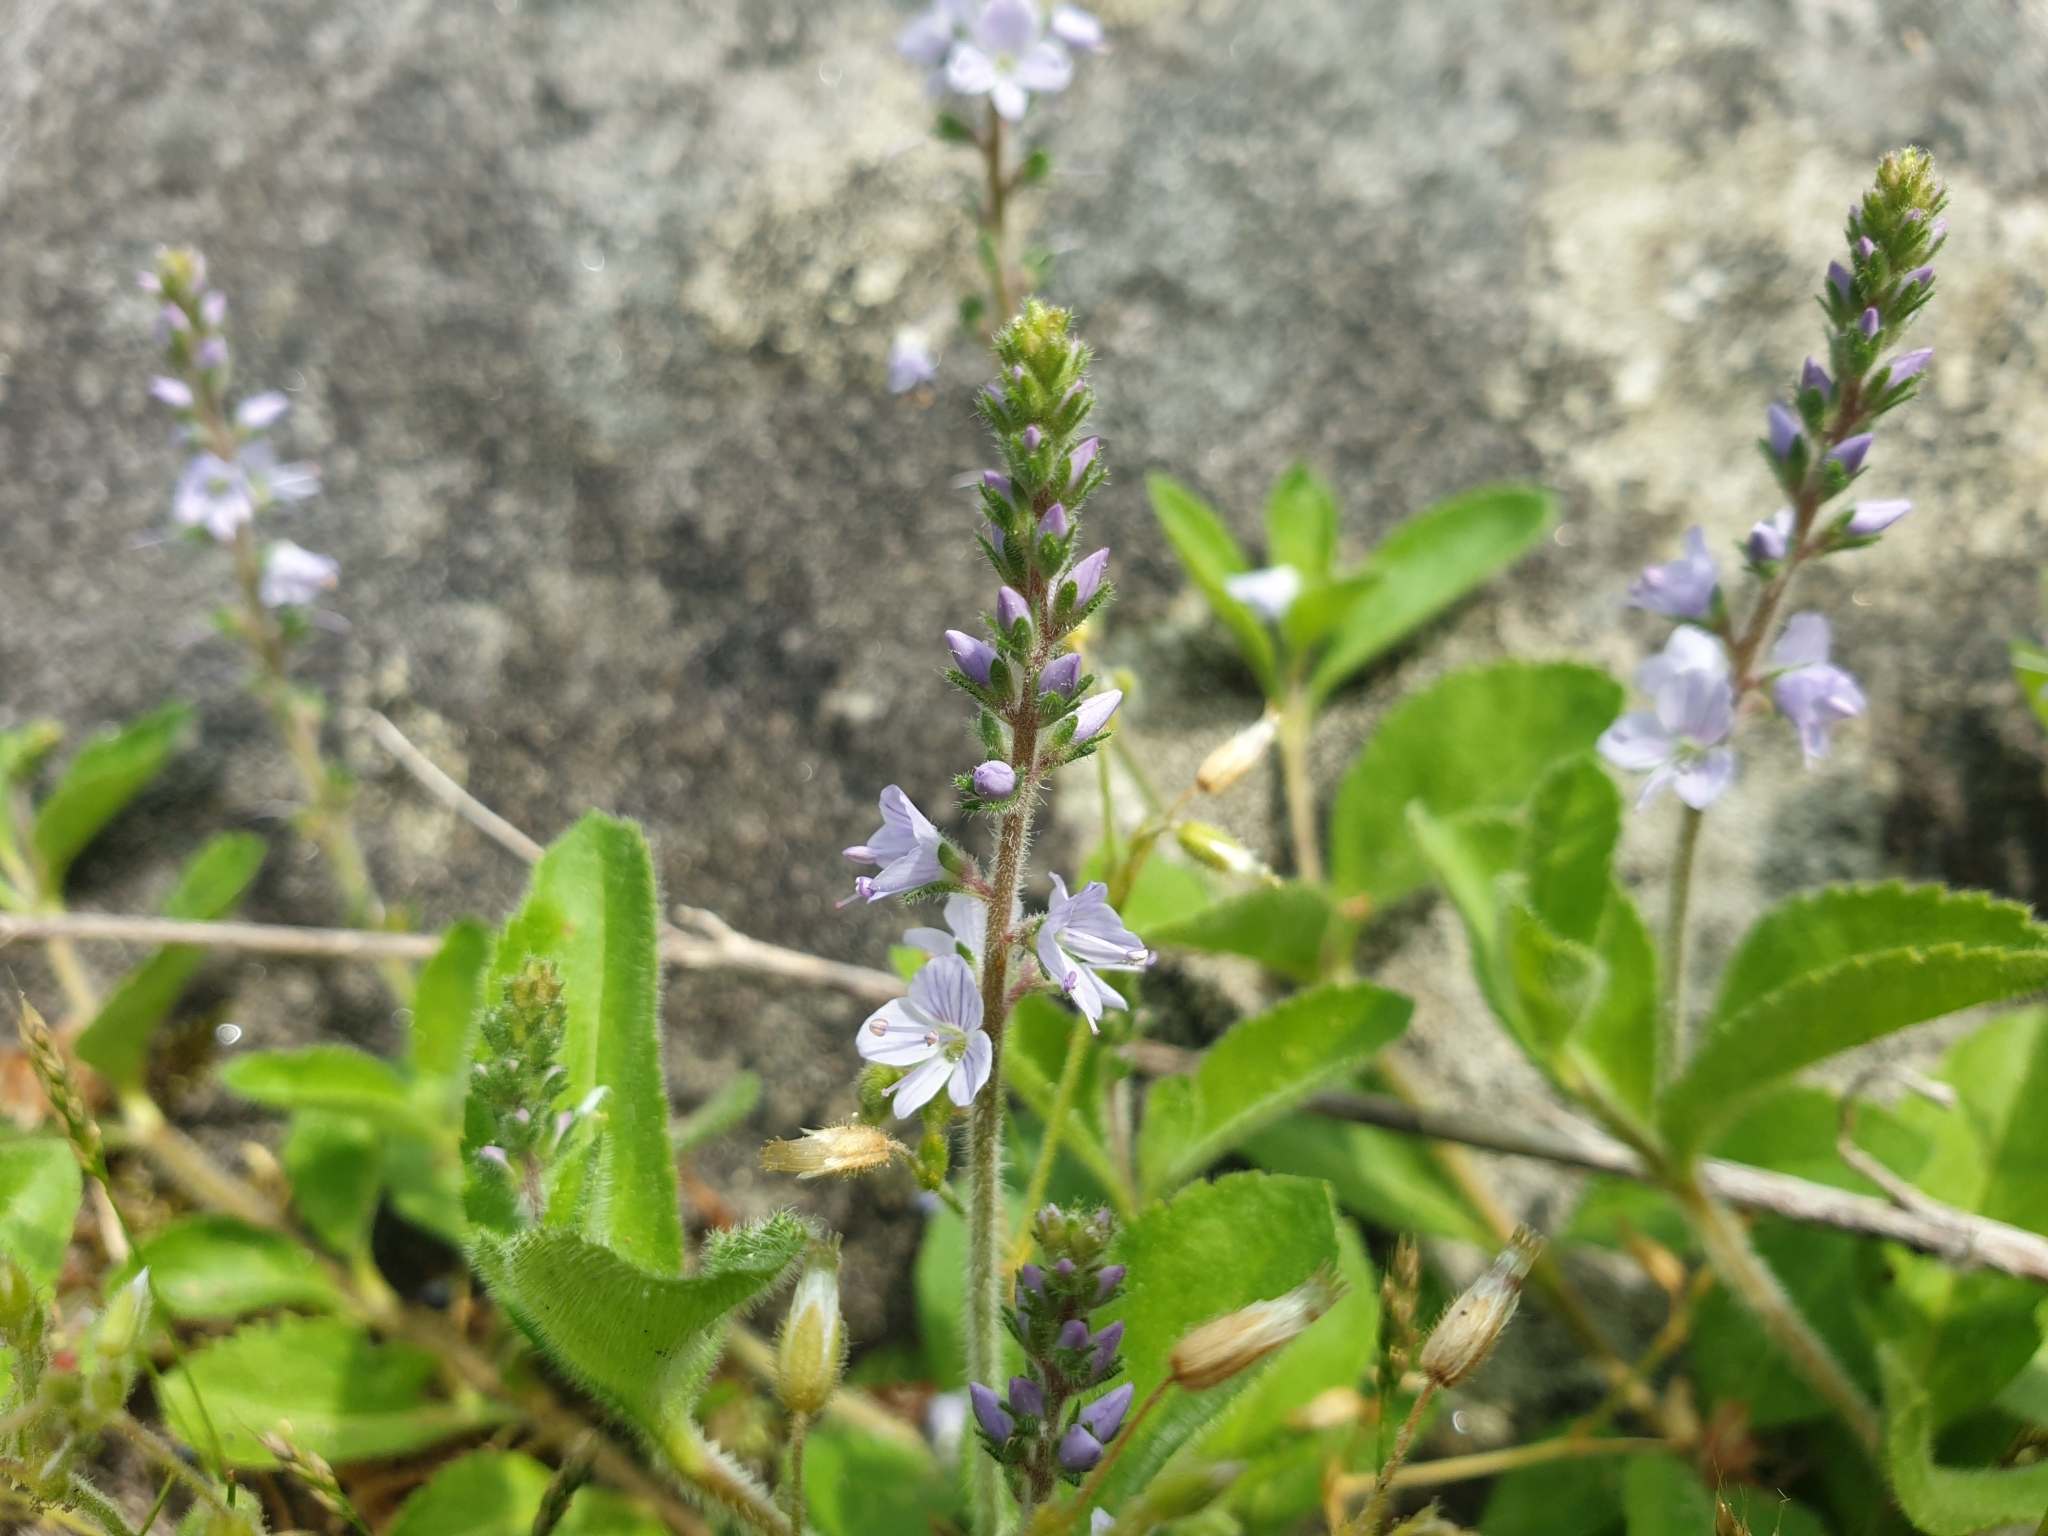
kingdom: Plantae
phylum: Tracheophyta
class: Magnoliopsida
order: Lamiales
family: Plantaginaceae
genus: Veronica
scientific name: Veronica officinalis
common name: Common speedwell
